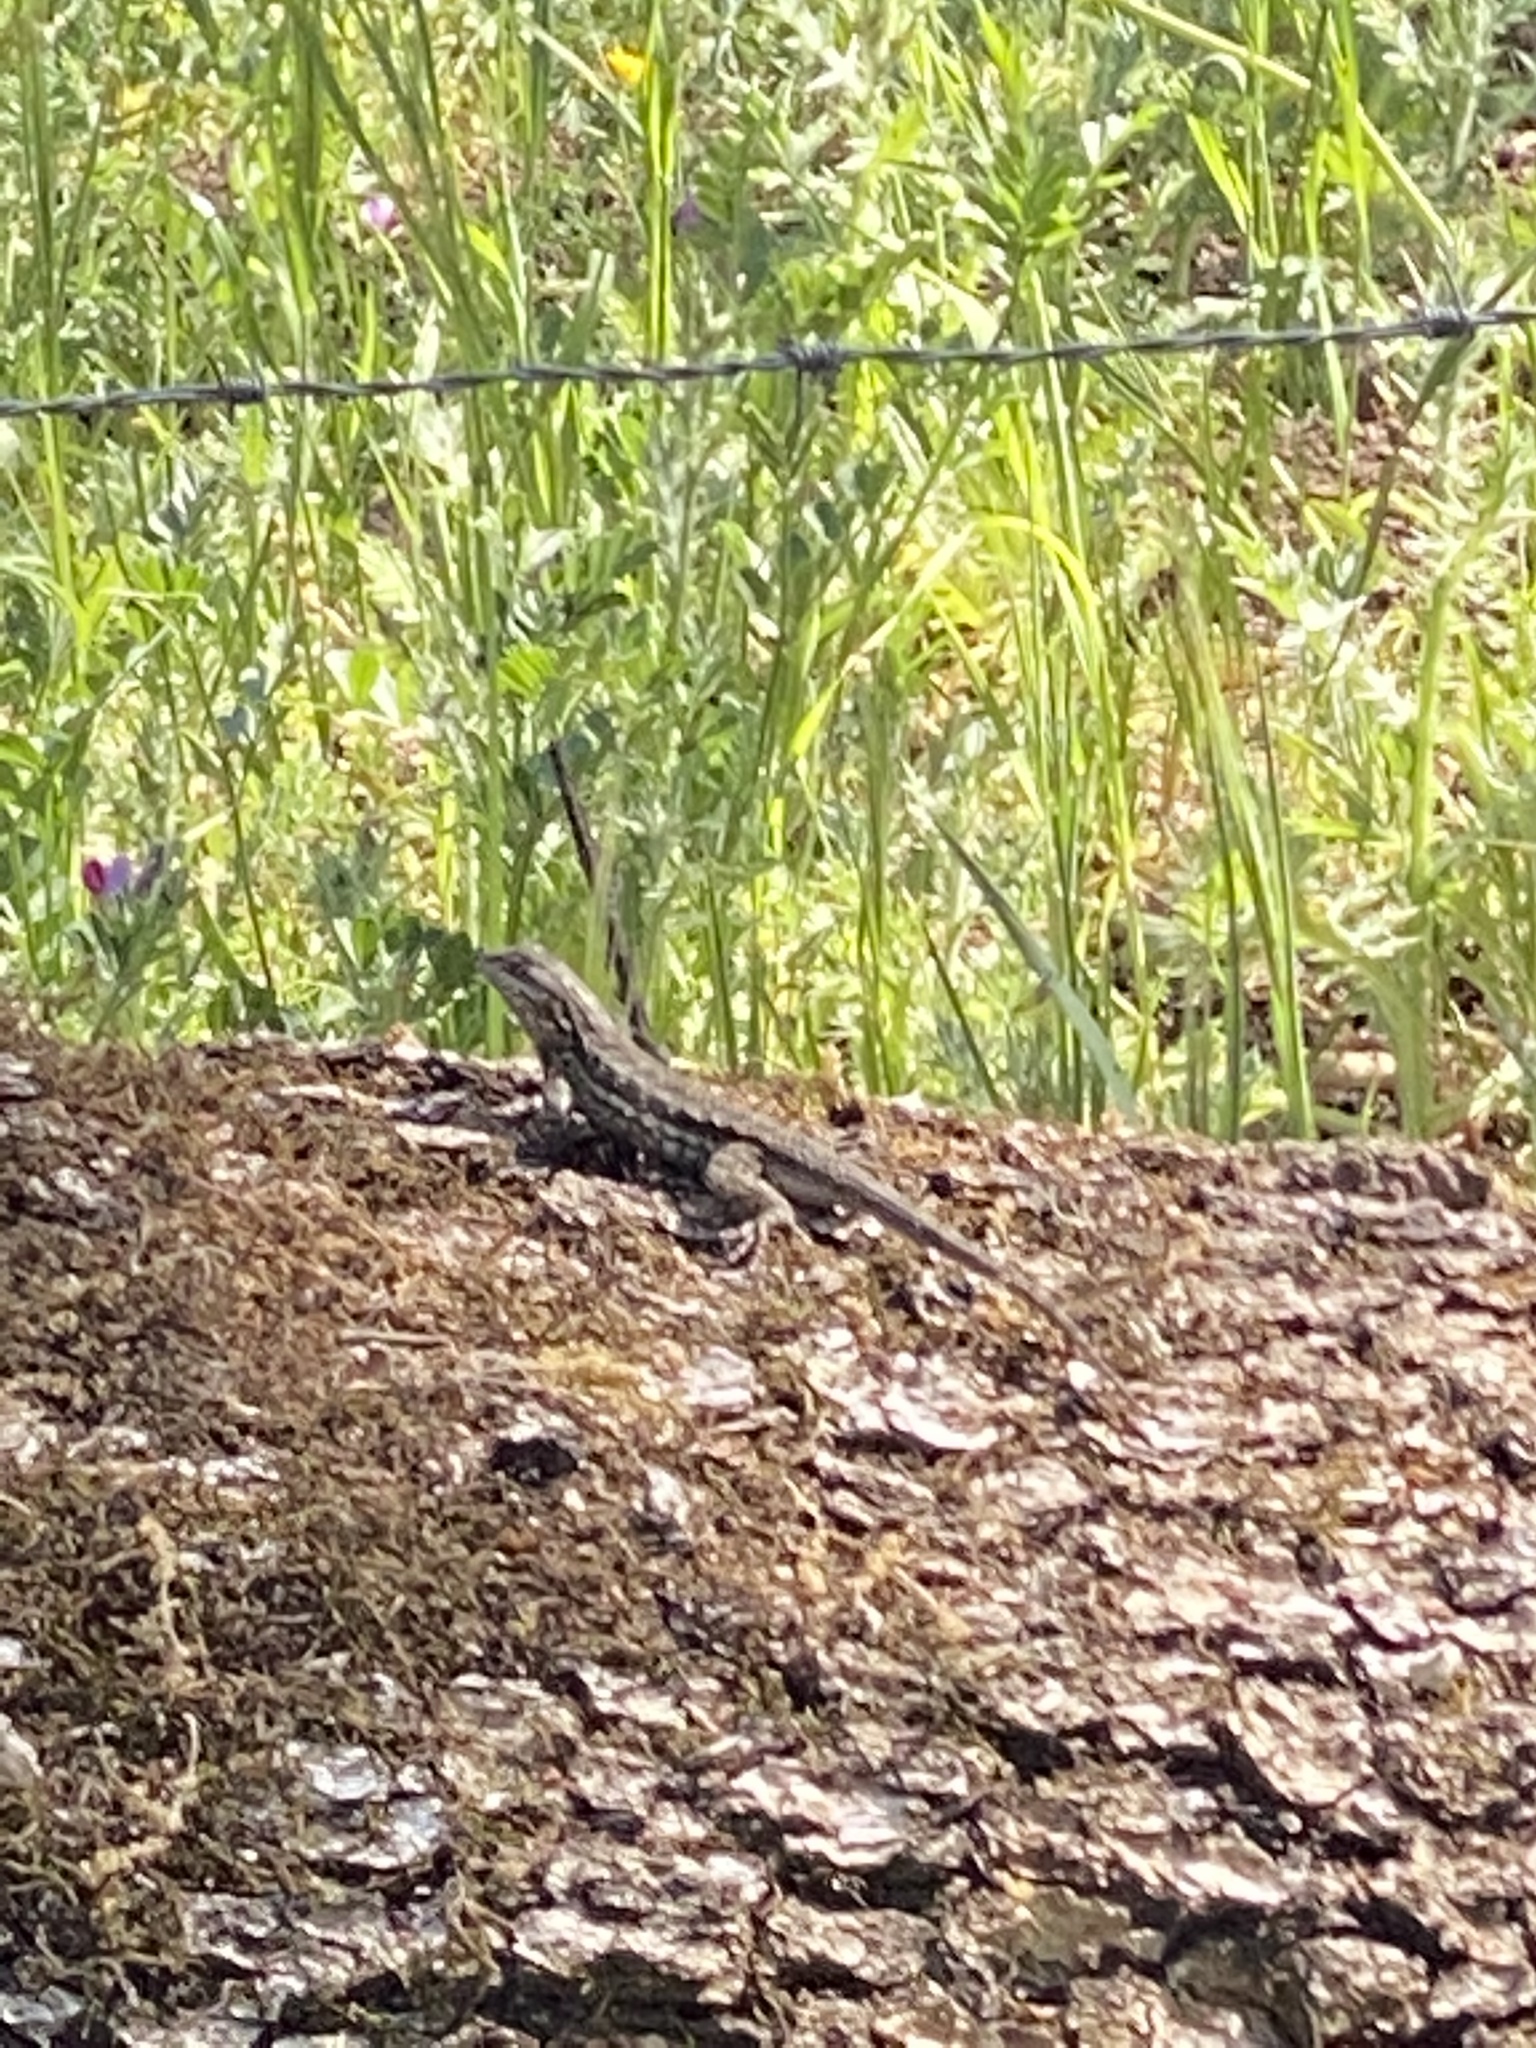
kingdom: Animalia
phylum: Chordata
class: Squamata
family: Phrynosomatidae
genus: Sceloporus
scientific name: Sceloporus occidentalis
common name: Western fence lizard
